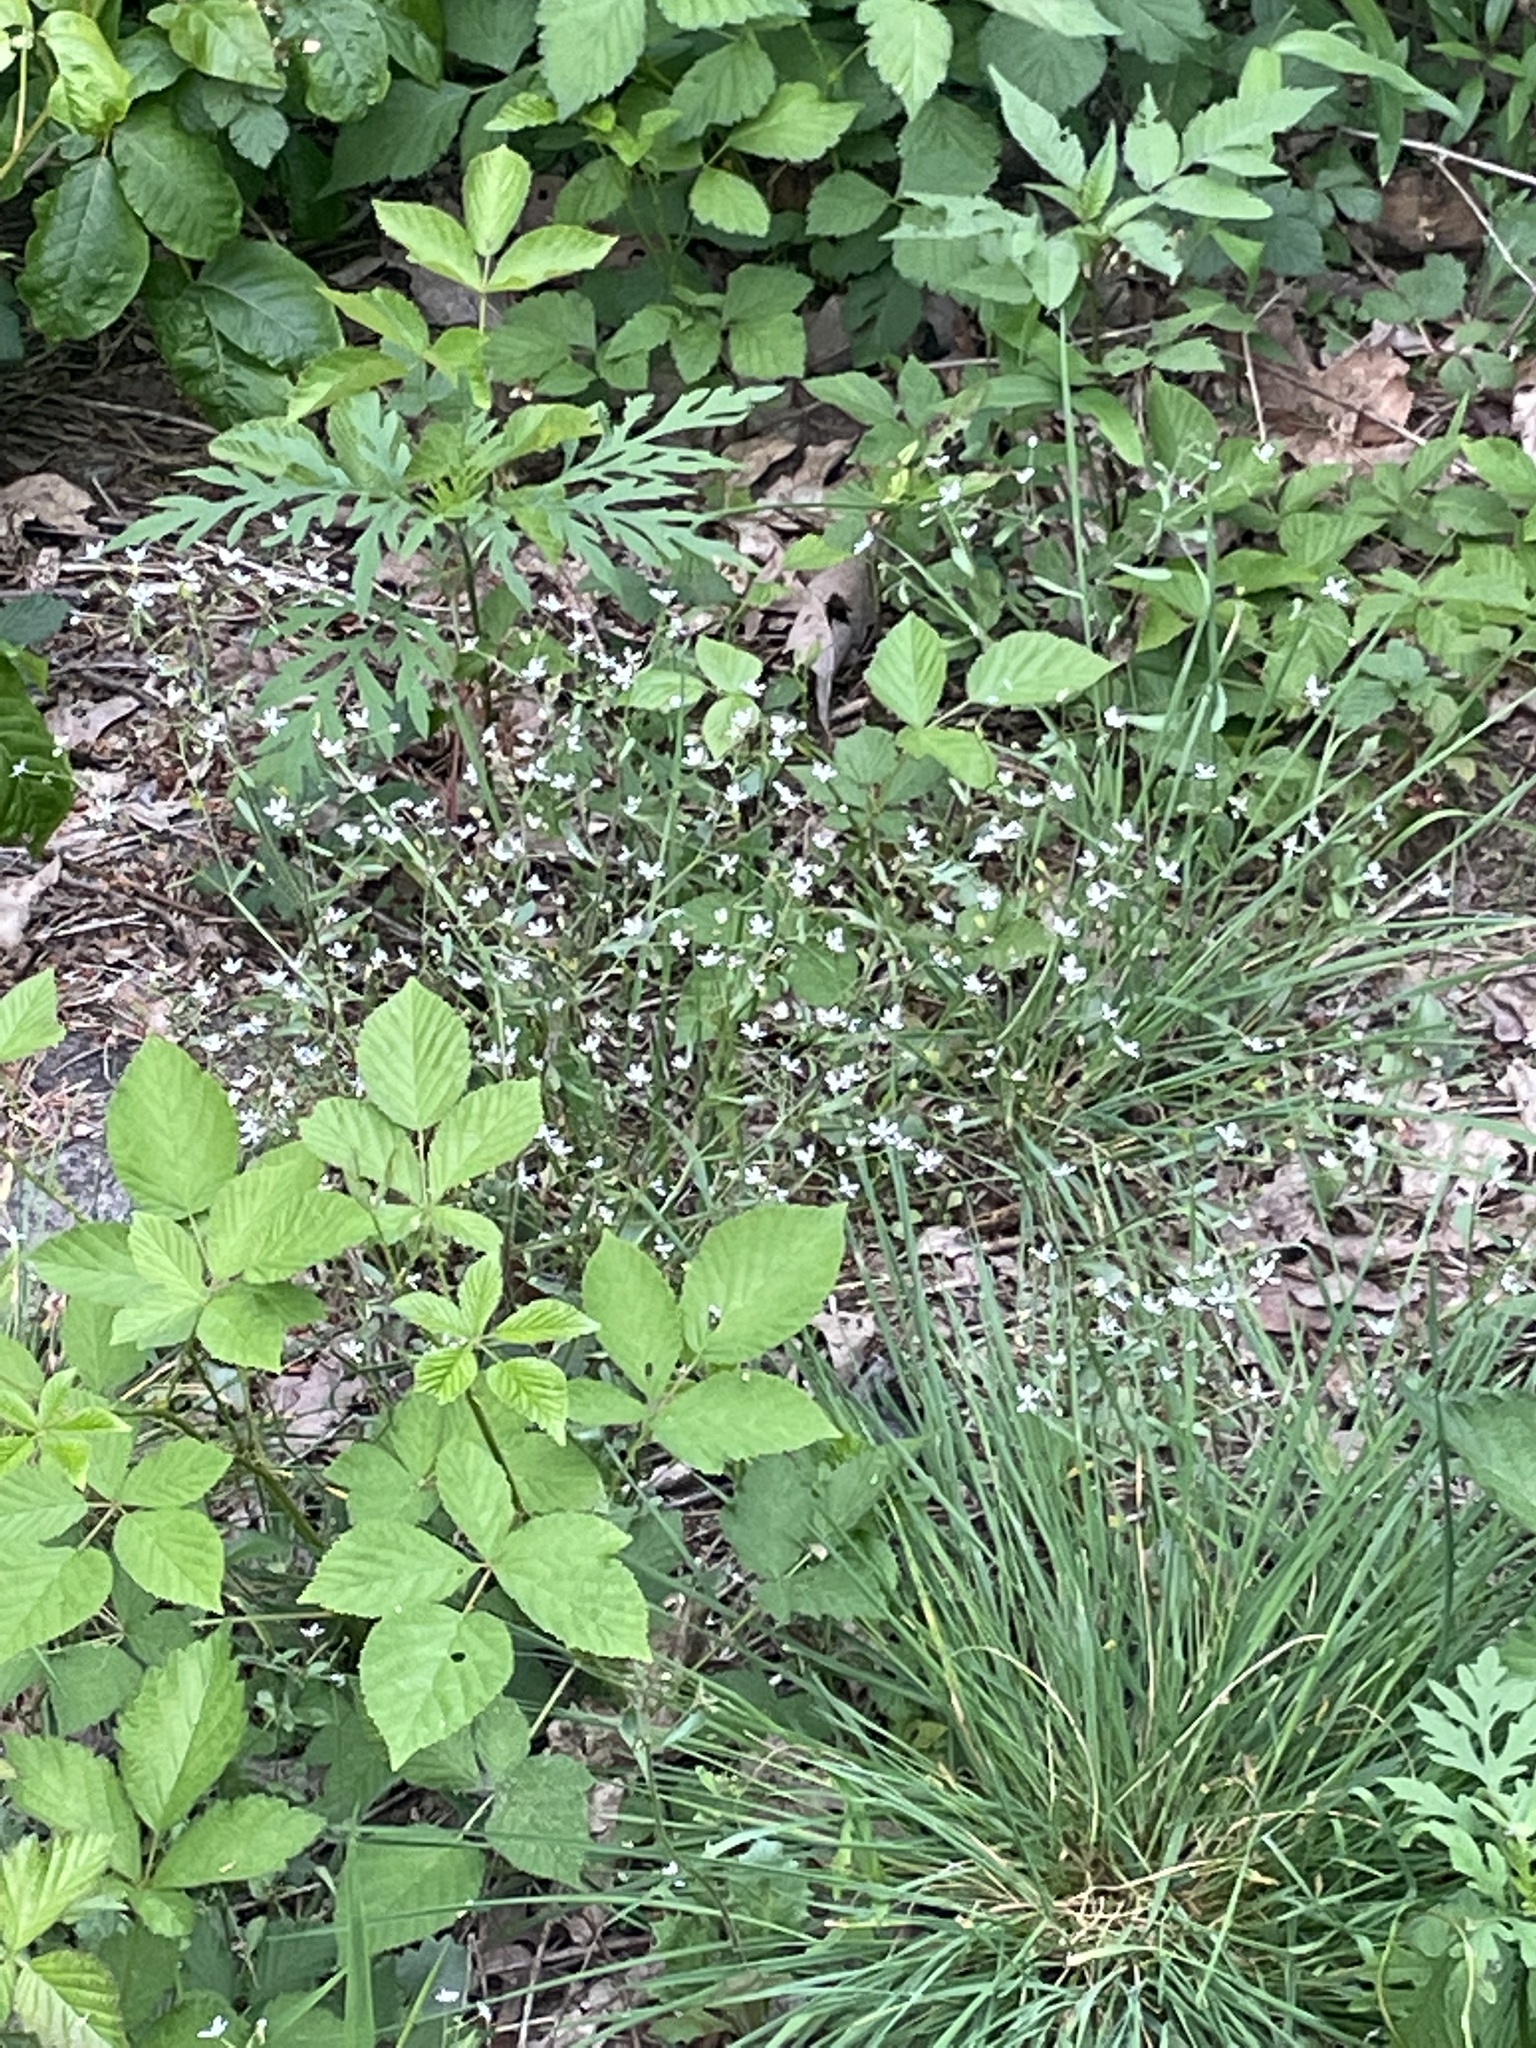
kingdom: Plantae
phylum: Tracheophyta
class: Magnoliopsida
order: Saxifragales
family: Saxifragaceae
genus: Micranthes
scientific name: Micranthes petiolaris
